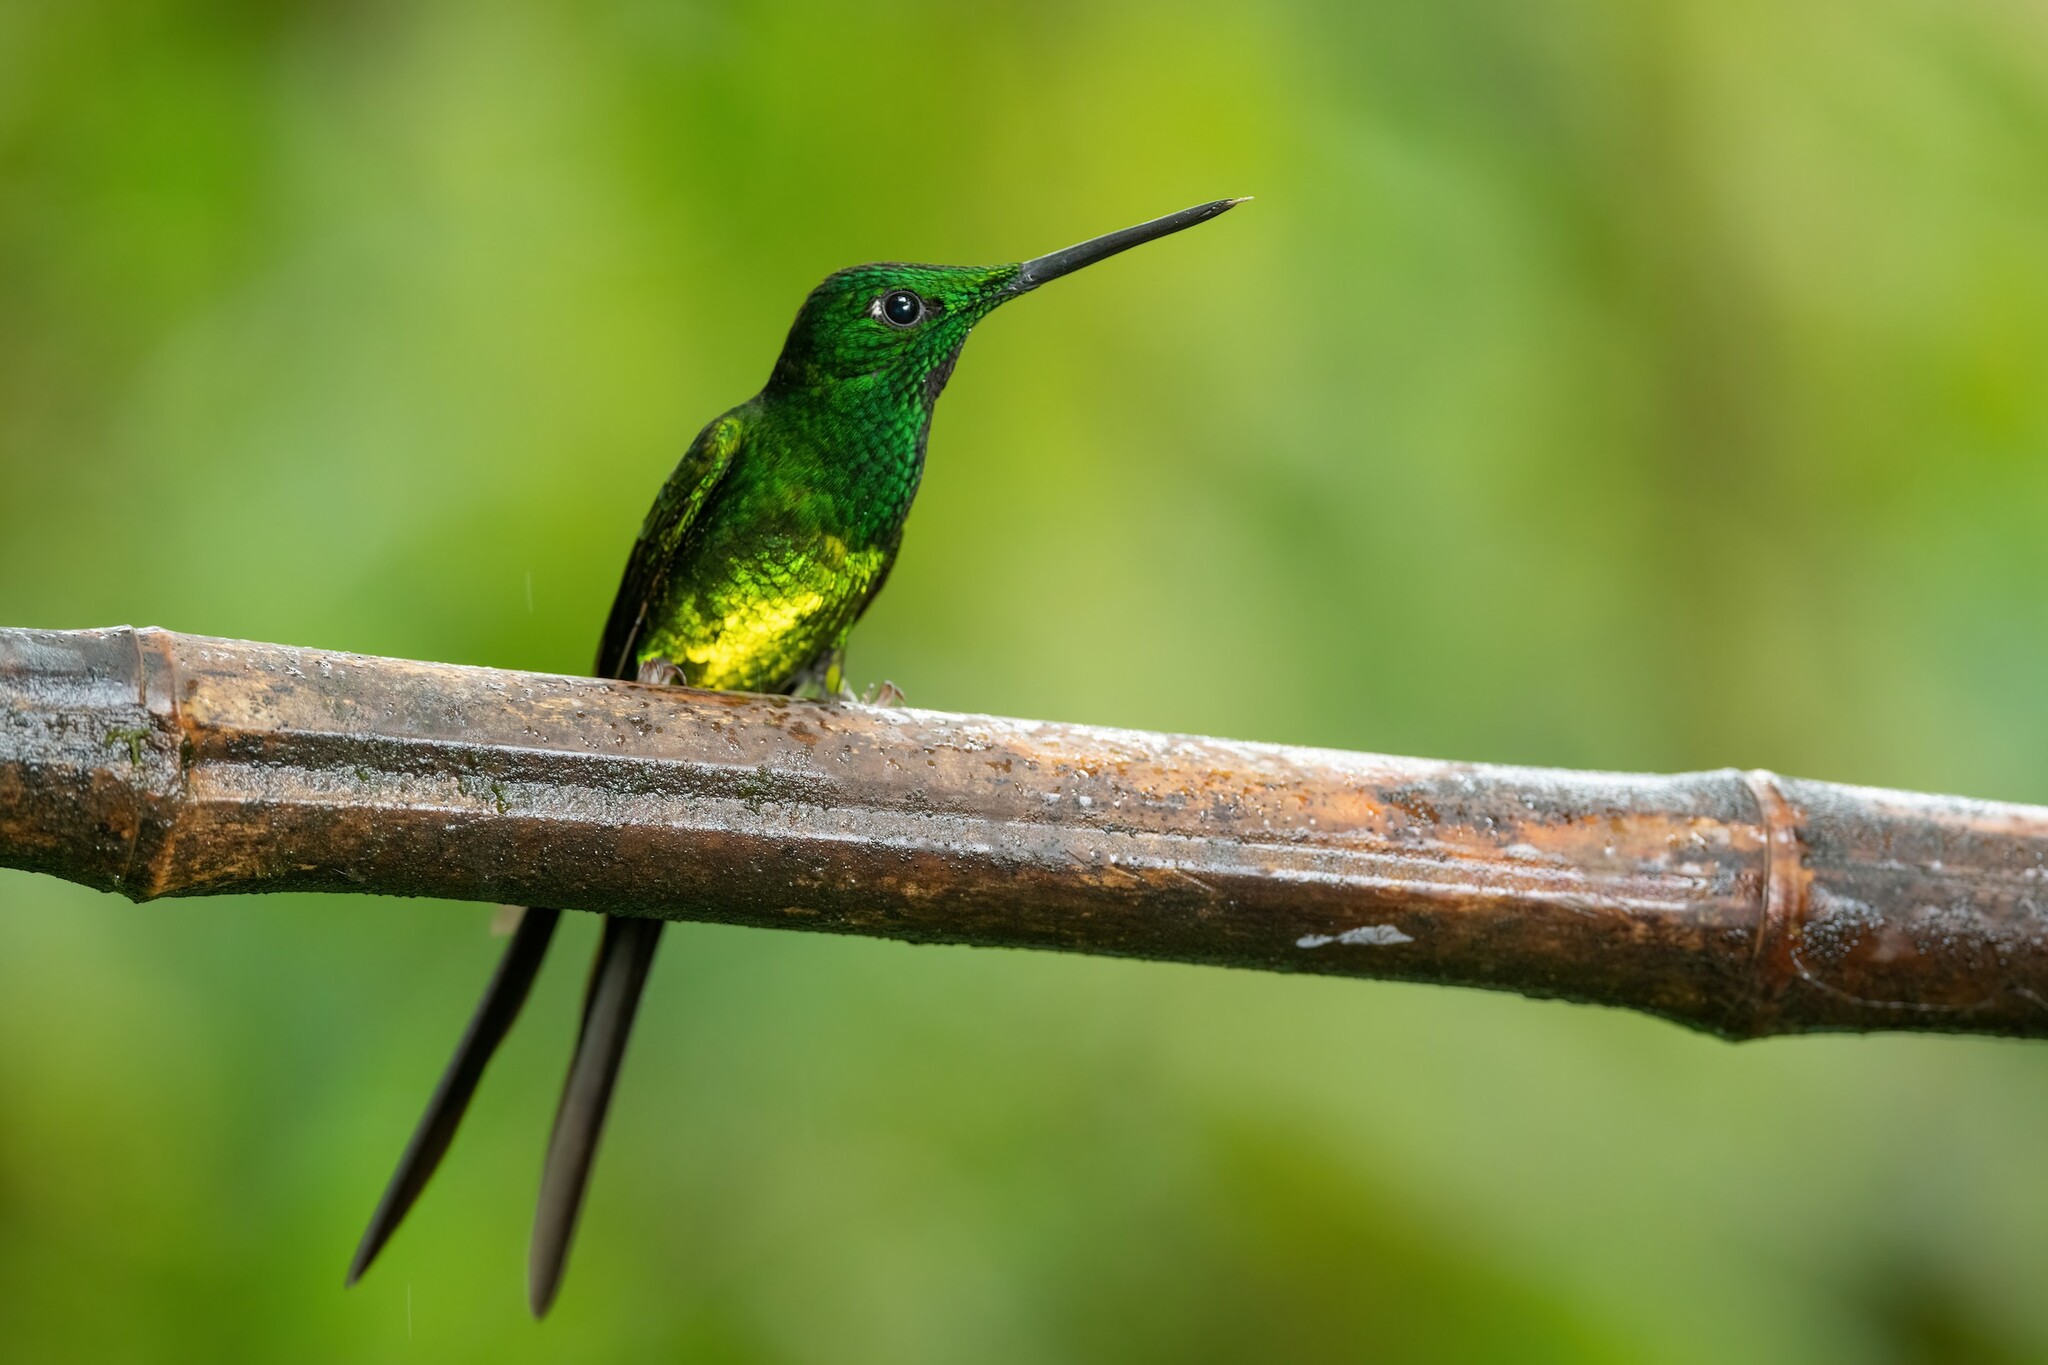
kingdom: Animalia
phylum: Chordata
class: Aves
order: Apodiformes
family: Trochilidae
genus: Heliodoxa
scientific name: Heliodoxa imperatrix
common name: Empress brilliant
